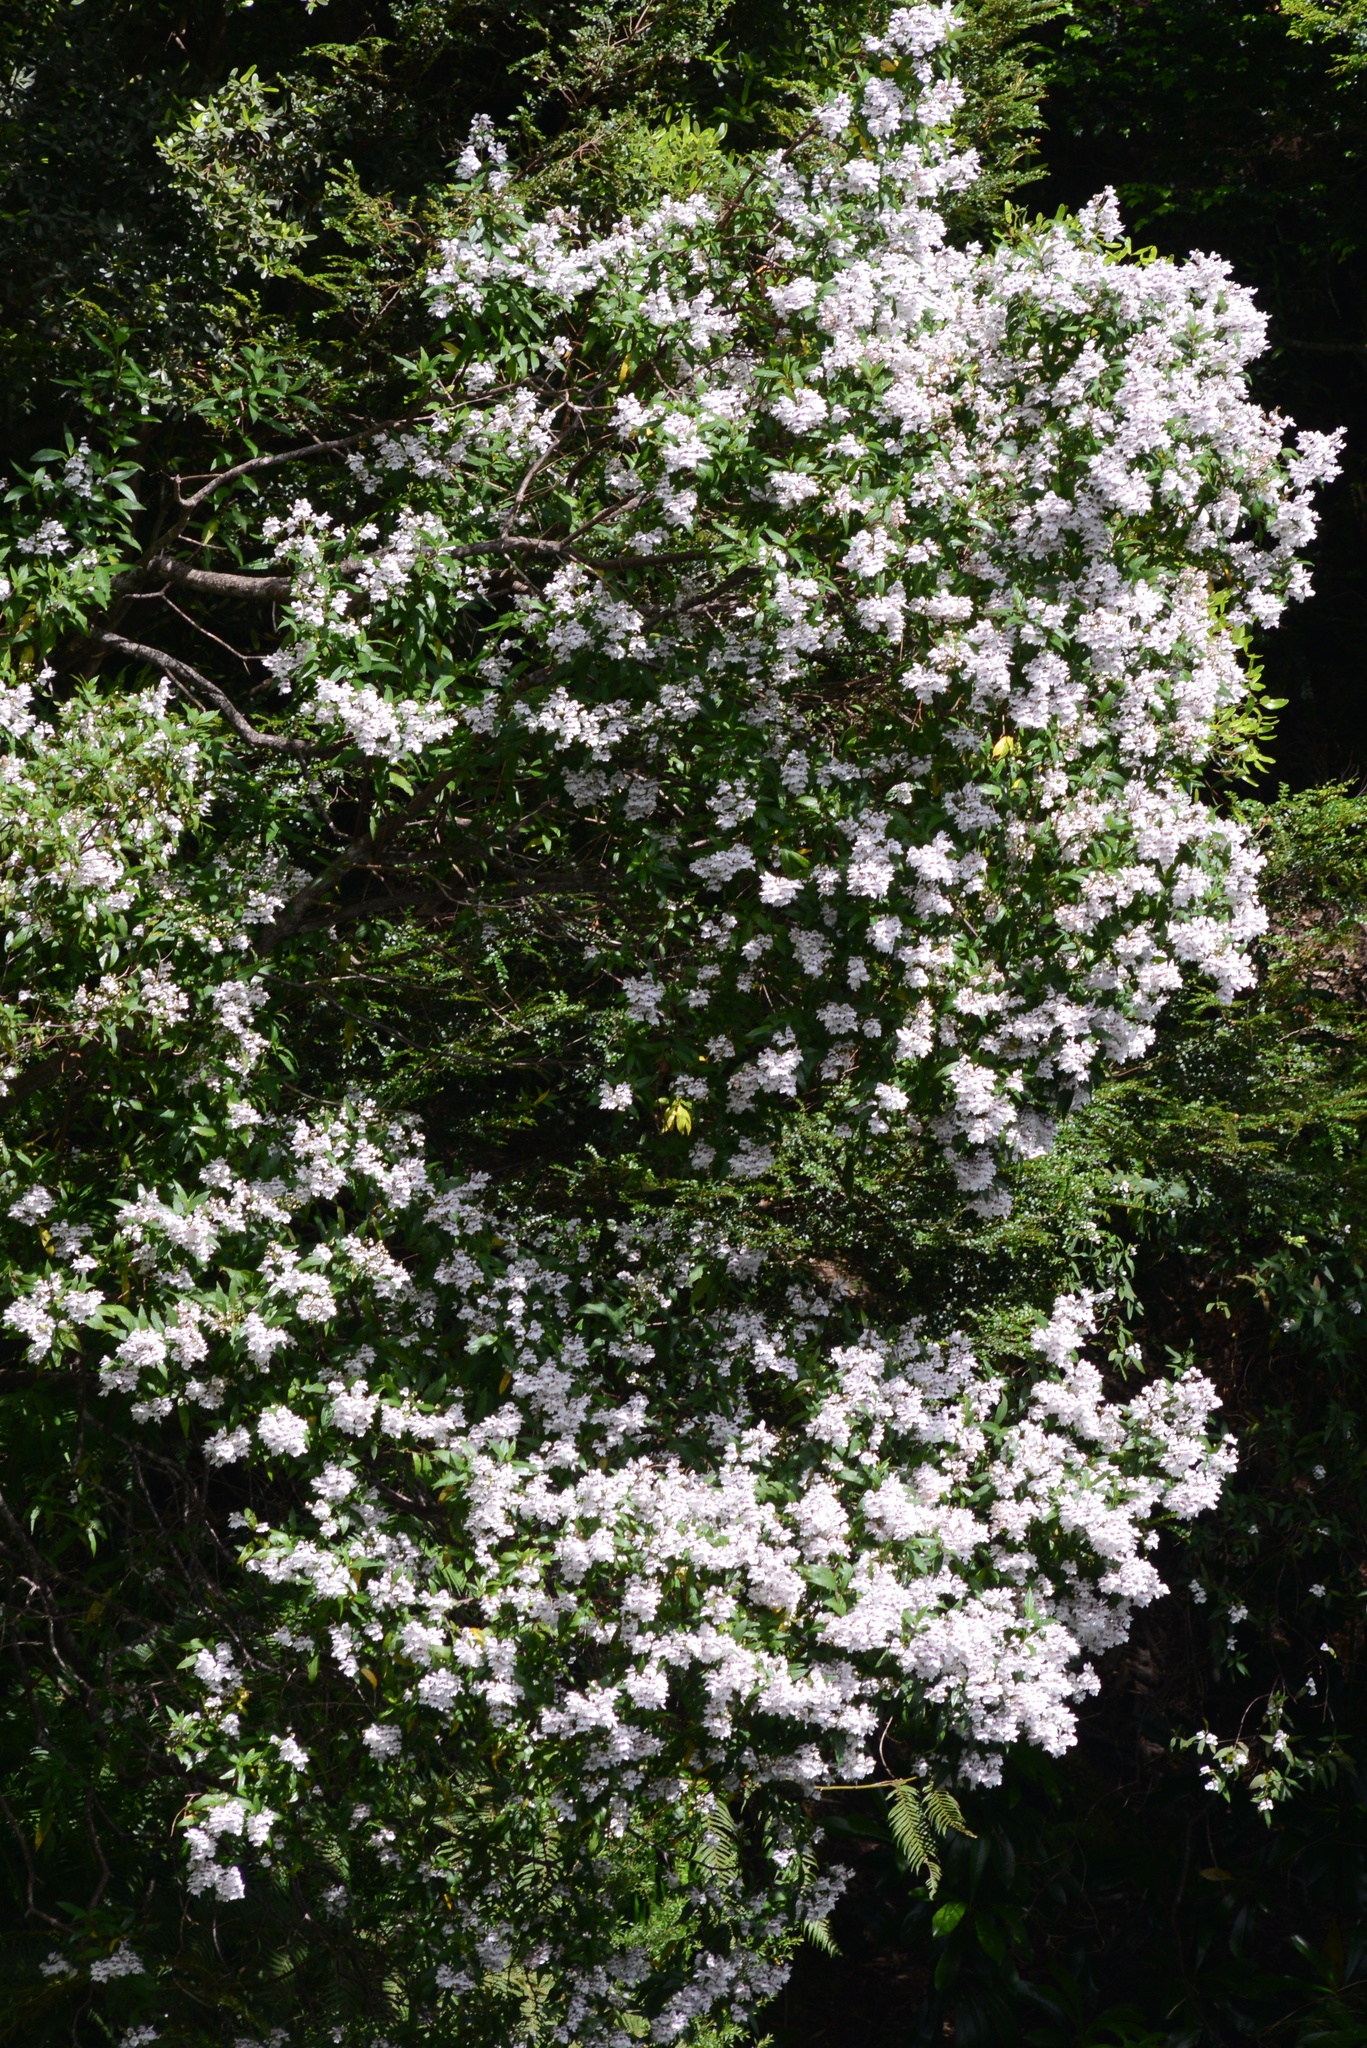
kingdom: Plantae
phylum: Tracheophyta
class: Magnoliopsida
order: Lamiales
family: Lamiaceae
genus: Prostanthera
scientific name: Prostanthera lasianthos
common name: Mountain-lilac
